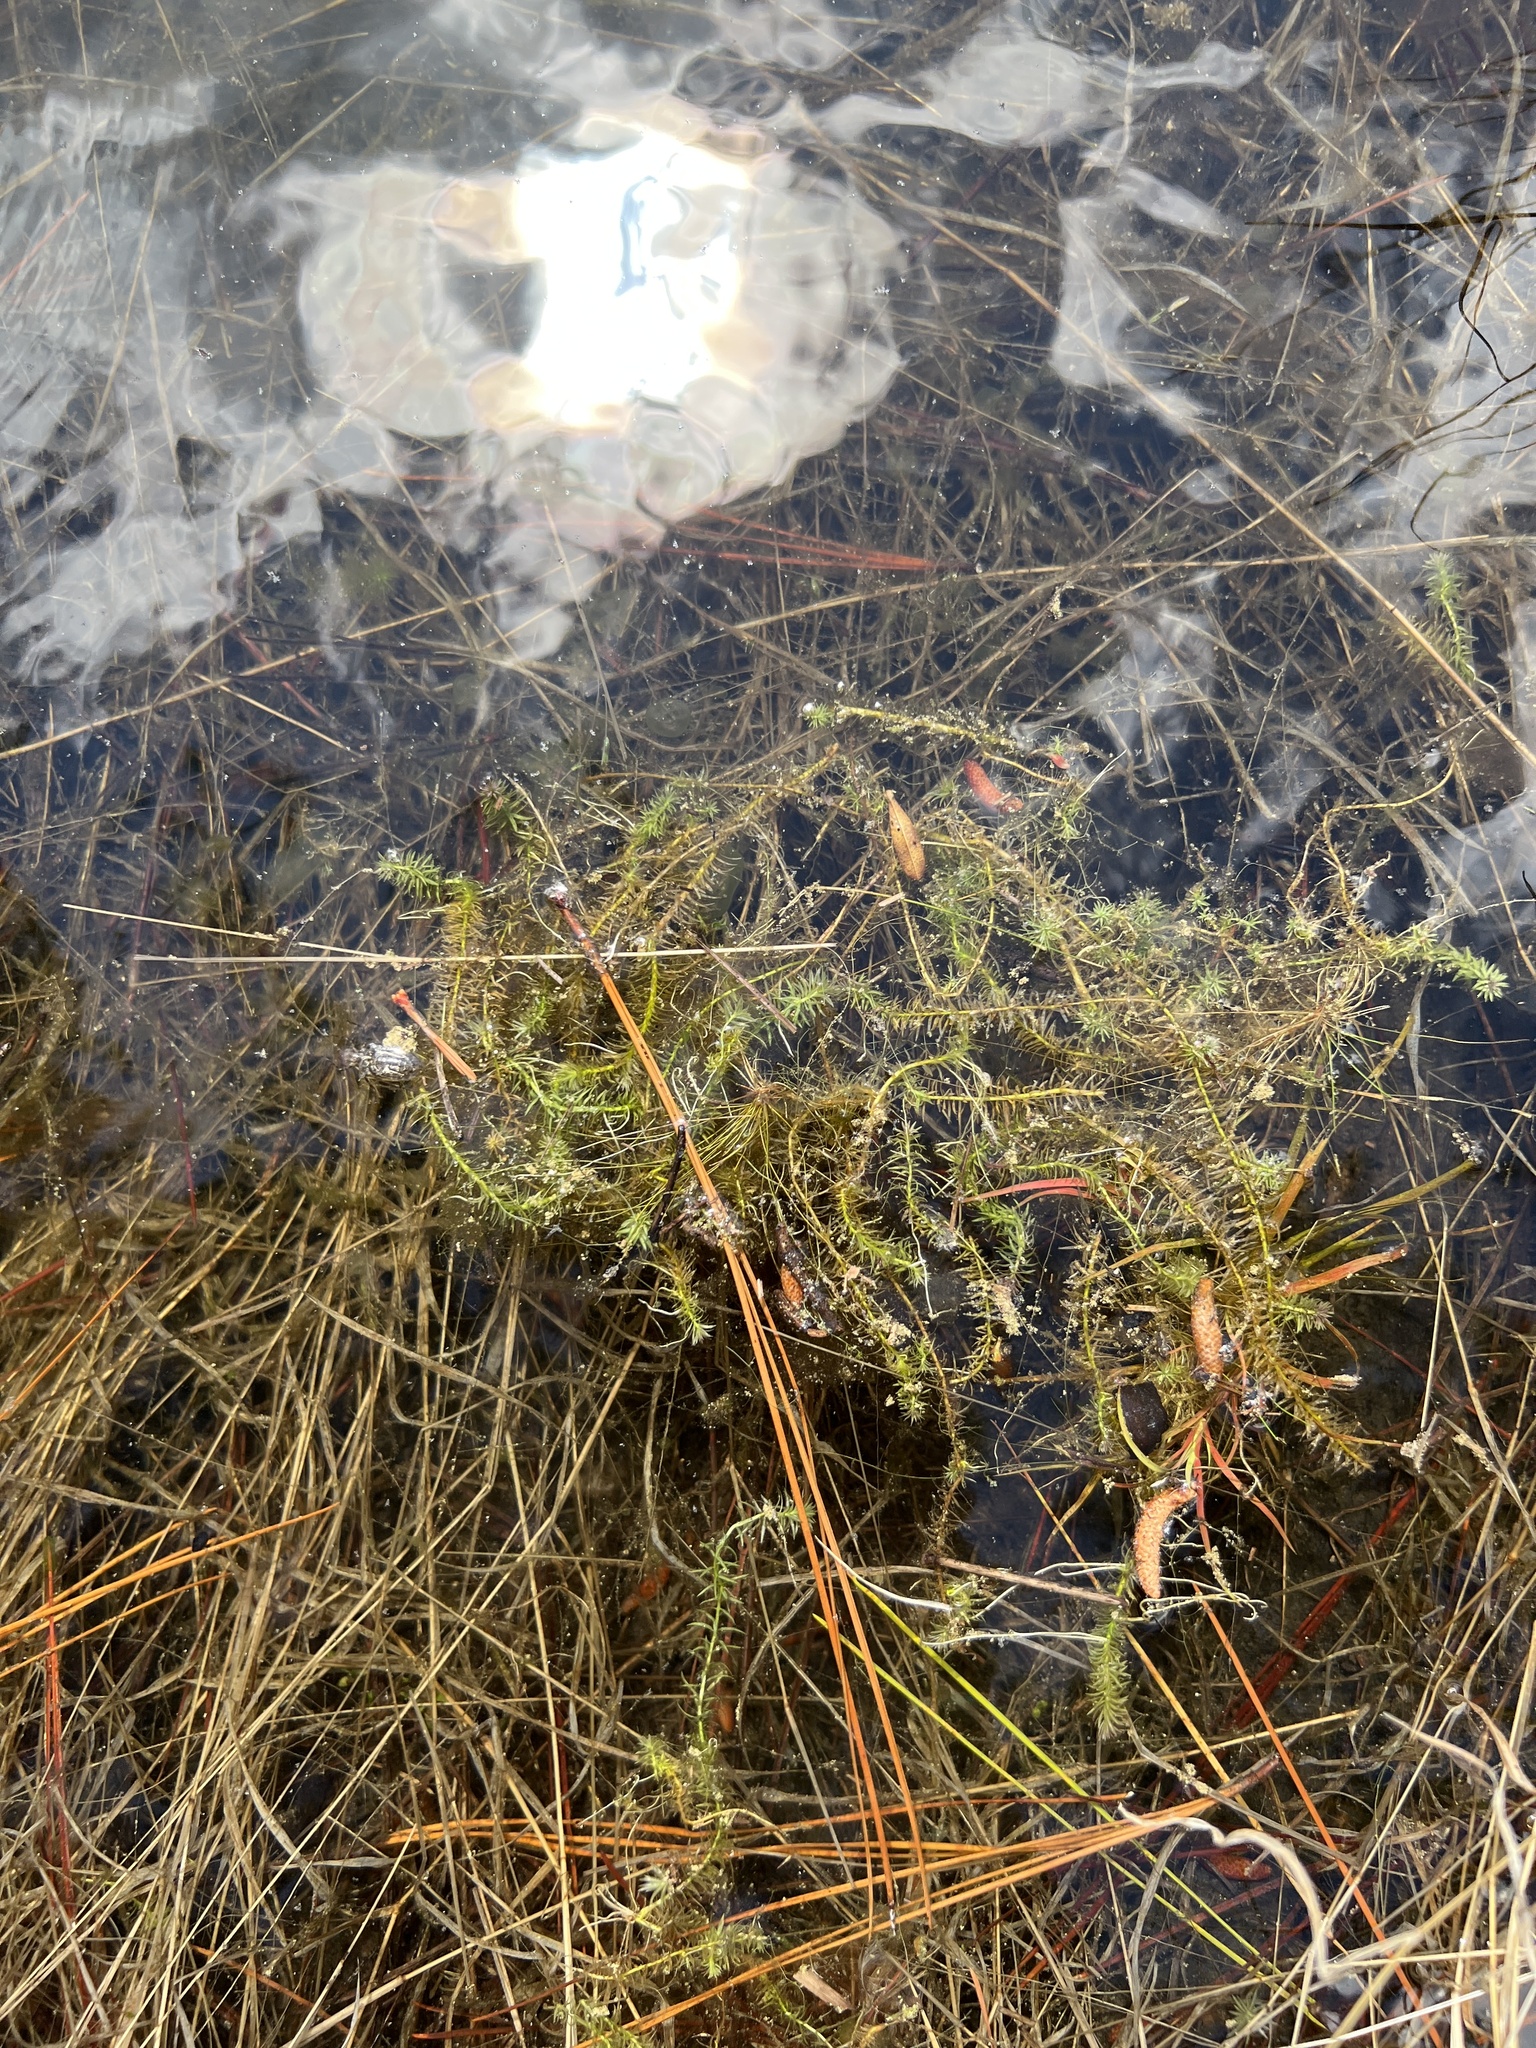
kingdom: Plantae
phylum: Tracheophyta
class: Liliopsida
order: Poales
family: Mayacaceae
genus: Mayaca
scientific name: Mayaca fluviatilis
